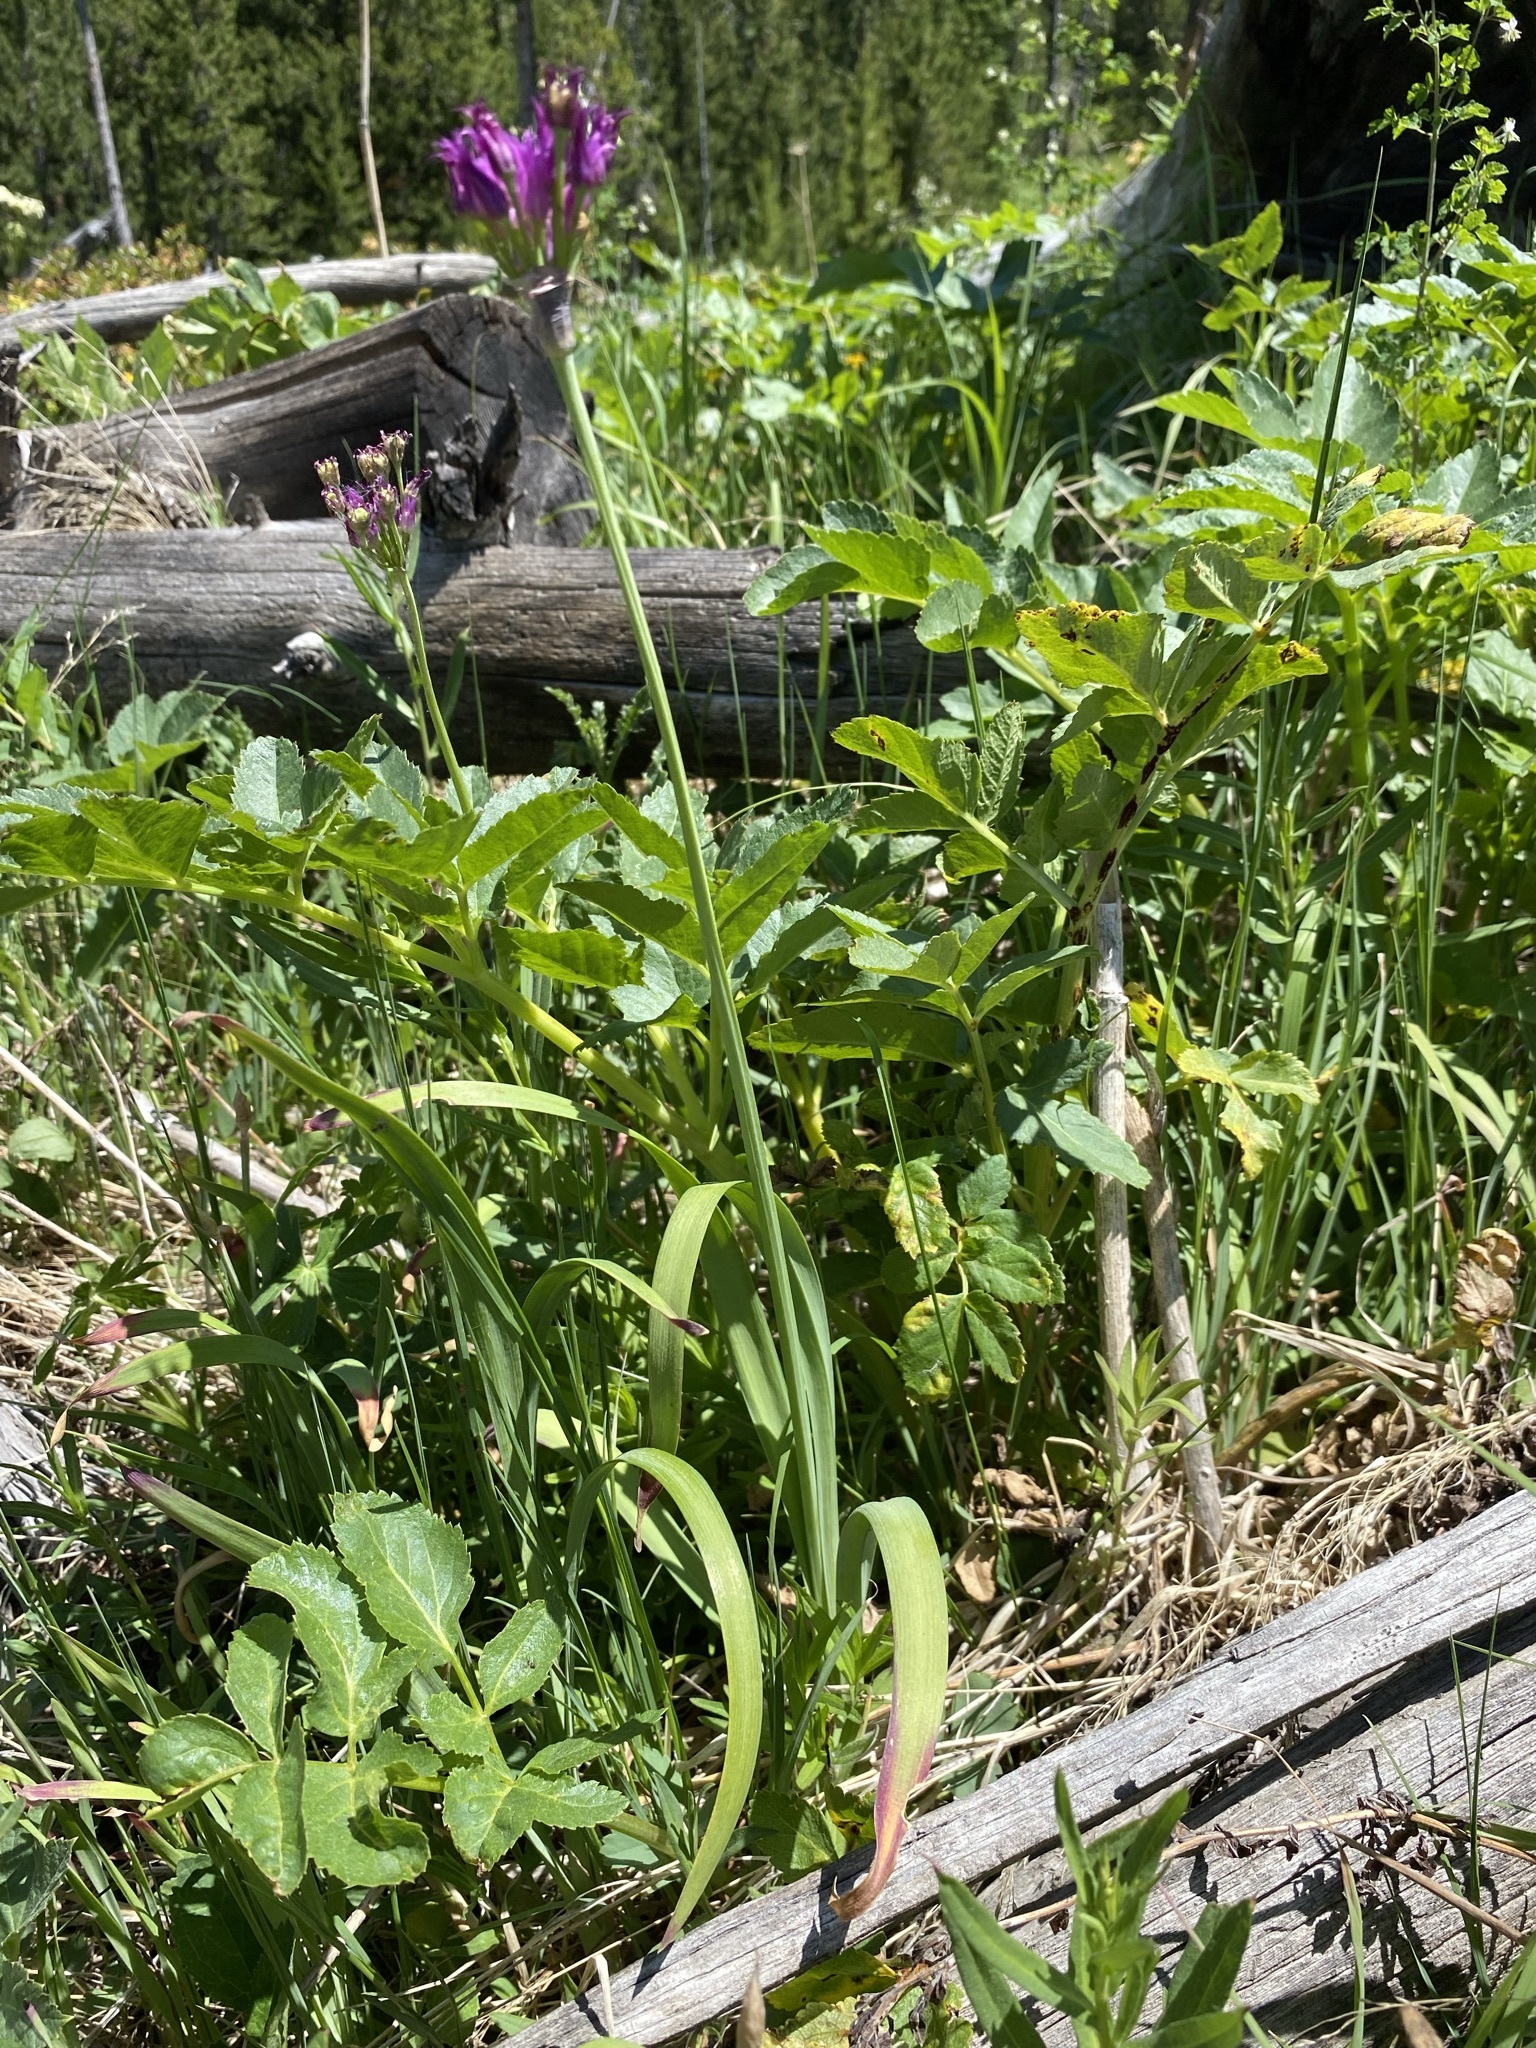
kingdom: Plantae
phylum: Tracheophyta
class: Liliopsida
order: Asparagales
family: Amaryllidaceae
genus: Allium
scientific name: Allium brevistylum
